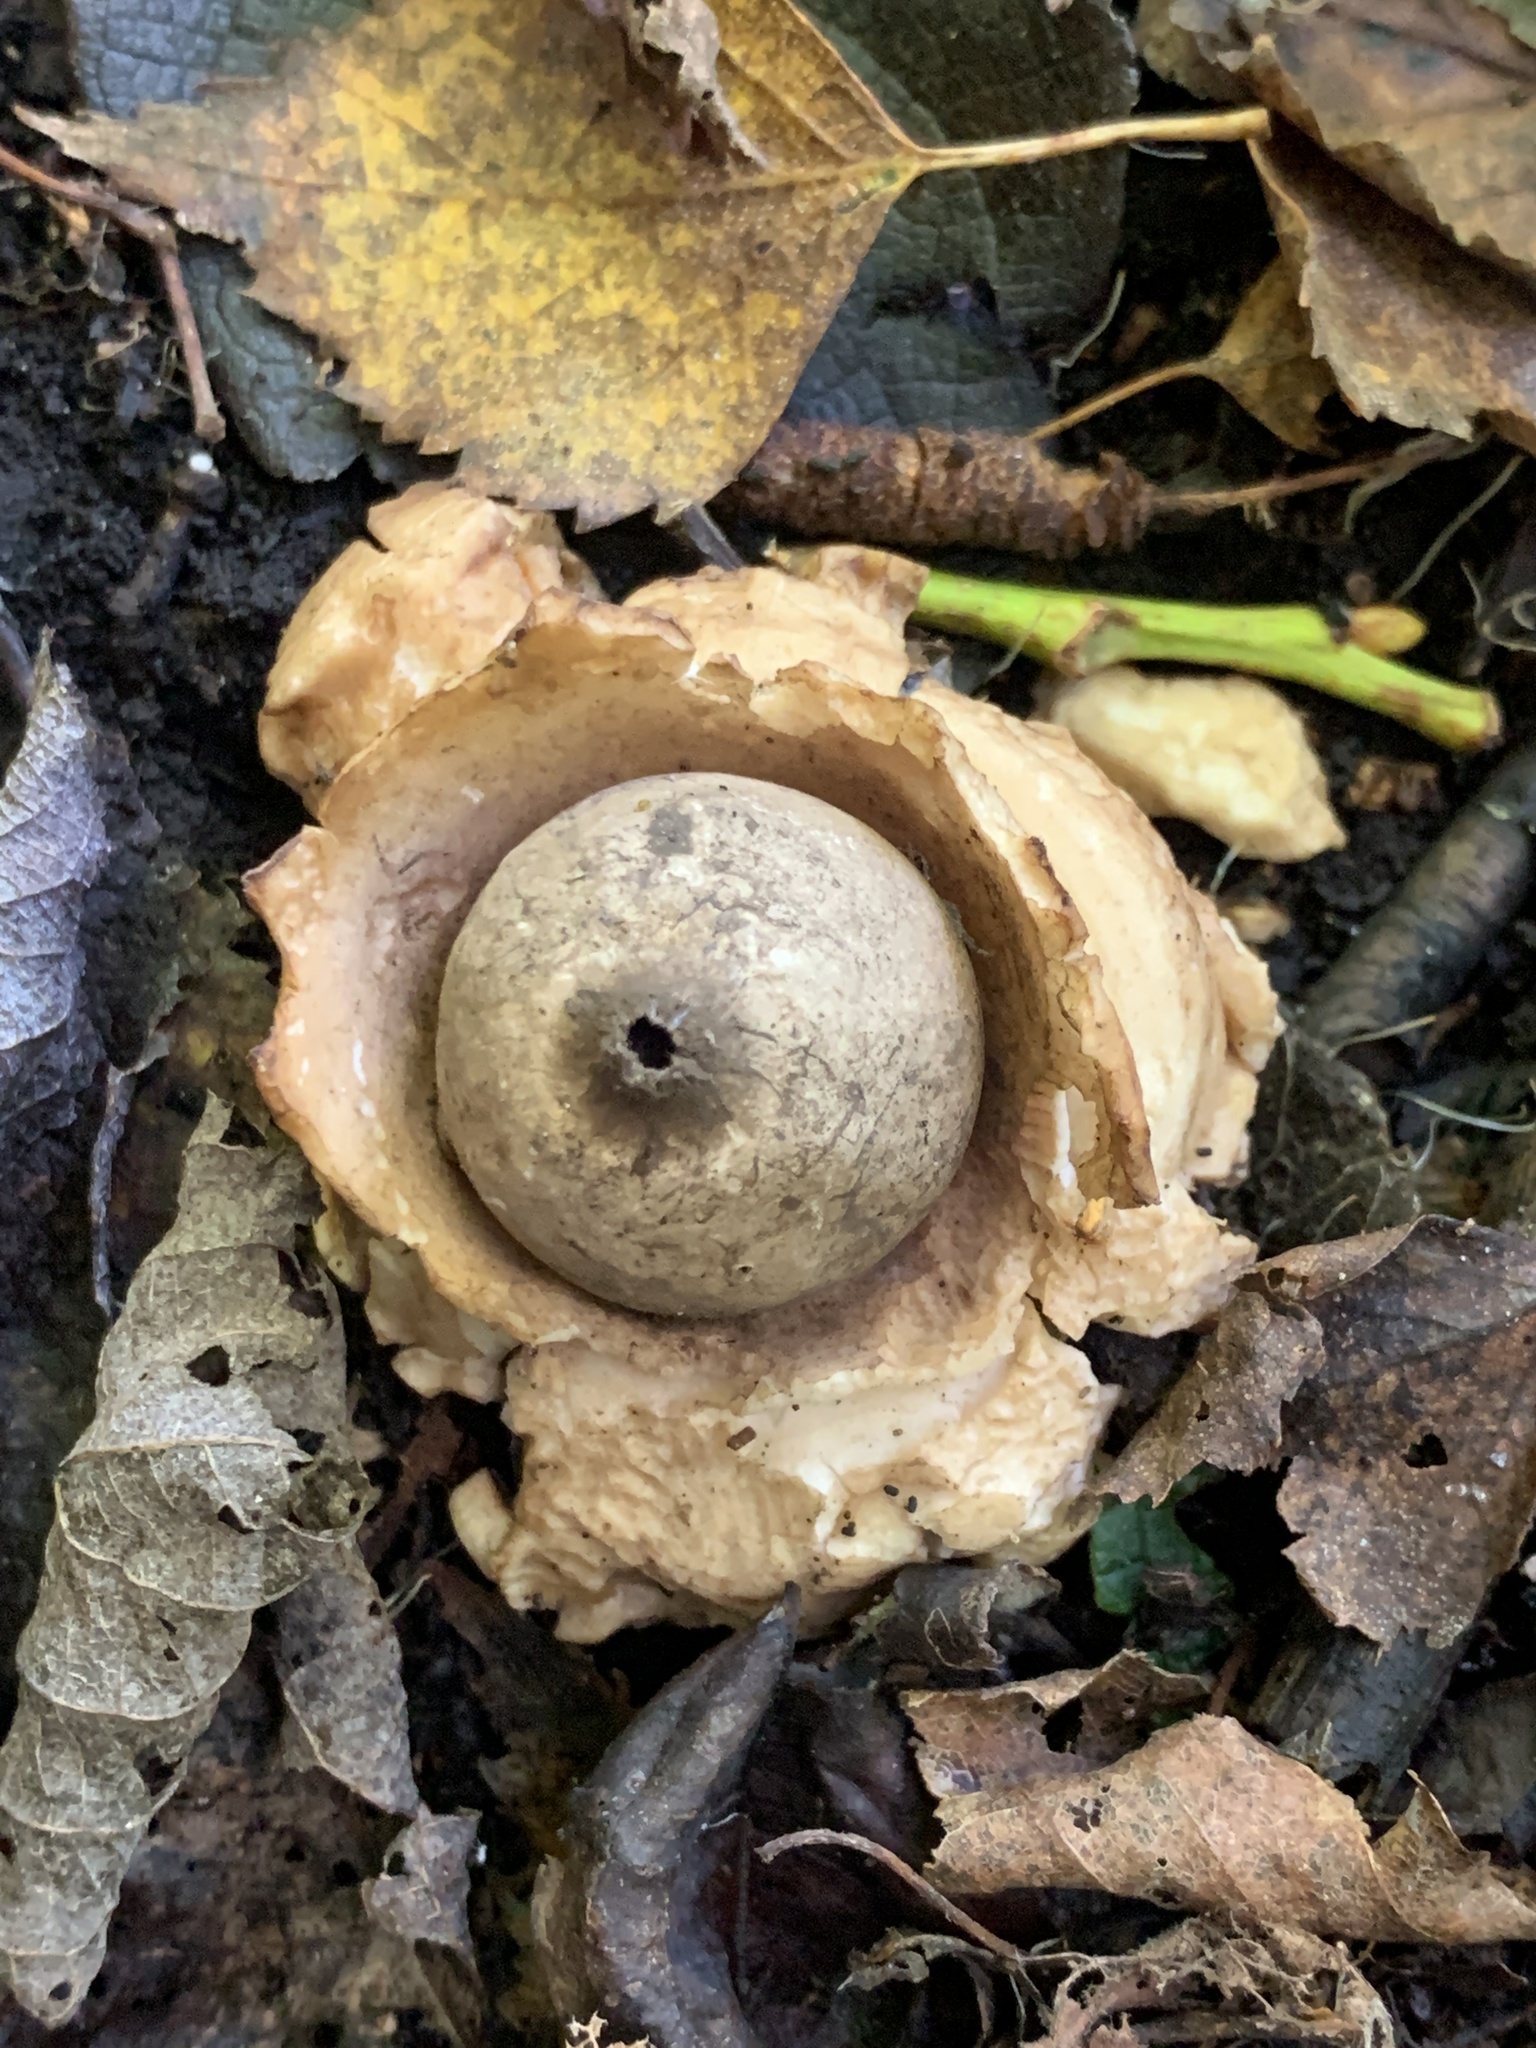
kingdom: Fungi
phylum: Basidiomycota
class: Agaricomycetes
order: Geastrales
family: Geastraceae
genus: Geastrum
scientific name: Geastrum triplex
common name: Collared earthstar
